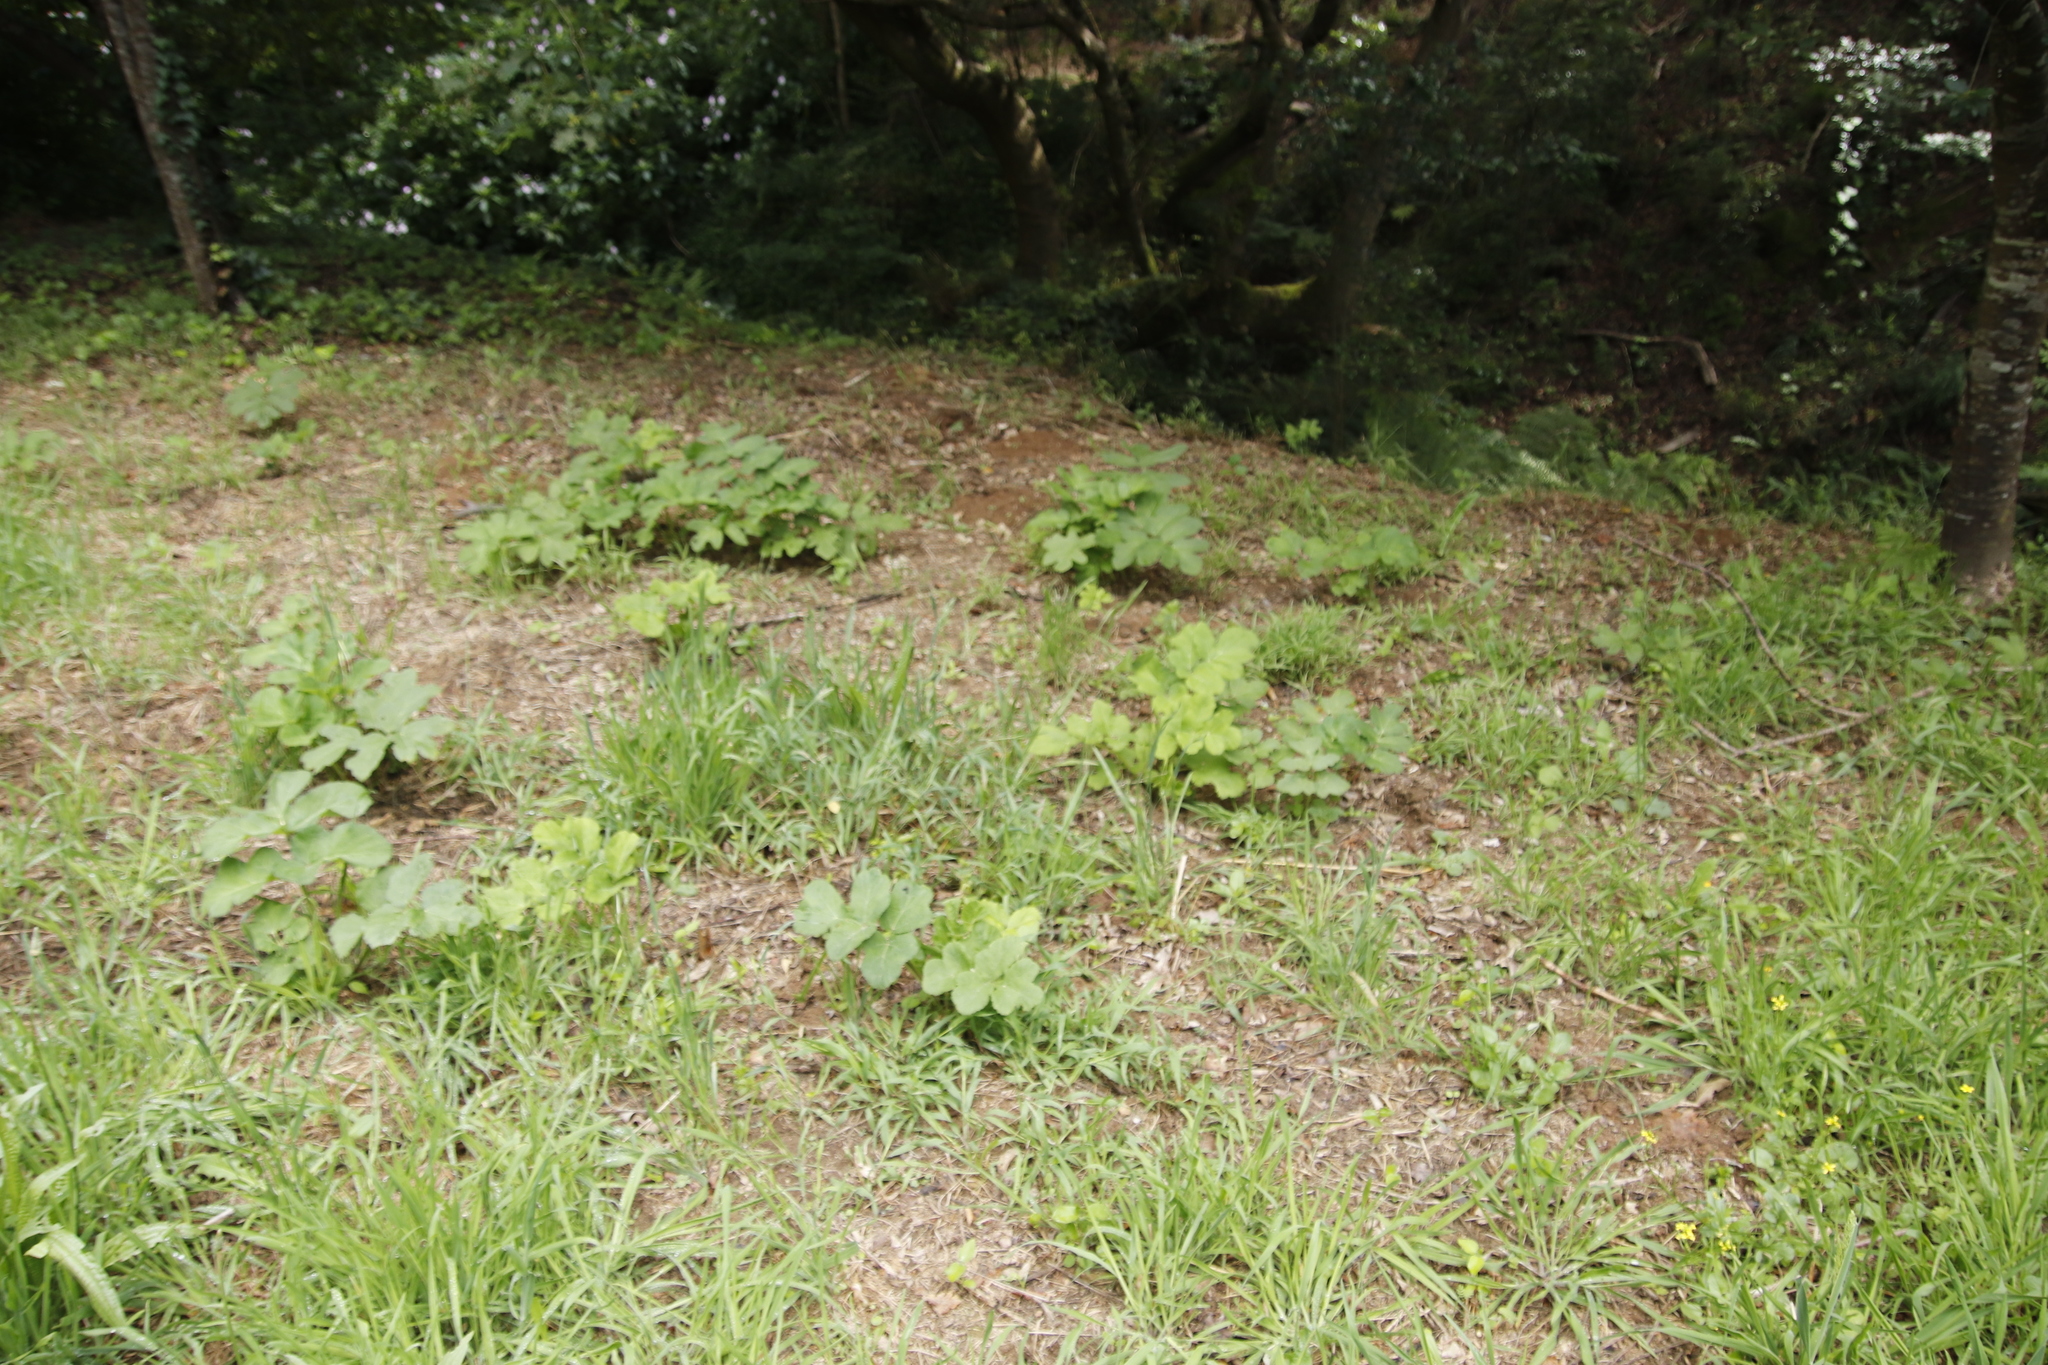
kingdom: Plantae
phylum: Tracheophyta
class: Magnoliopsida
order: Apiales
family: Apiaceae
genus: Heracleum
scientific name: Heracleum sphondylium
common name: Hogweed
